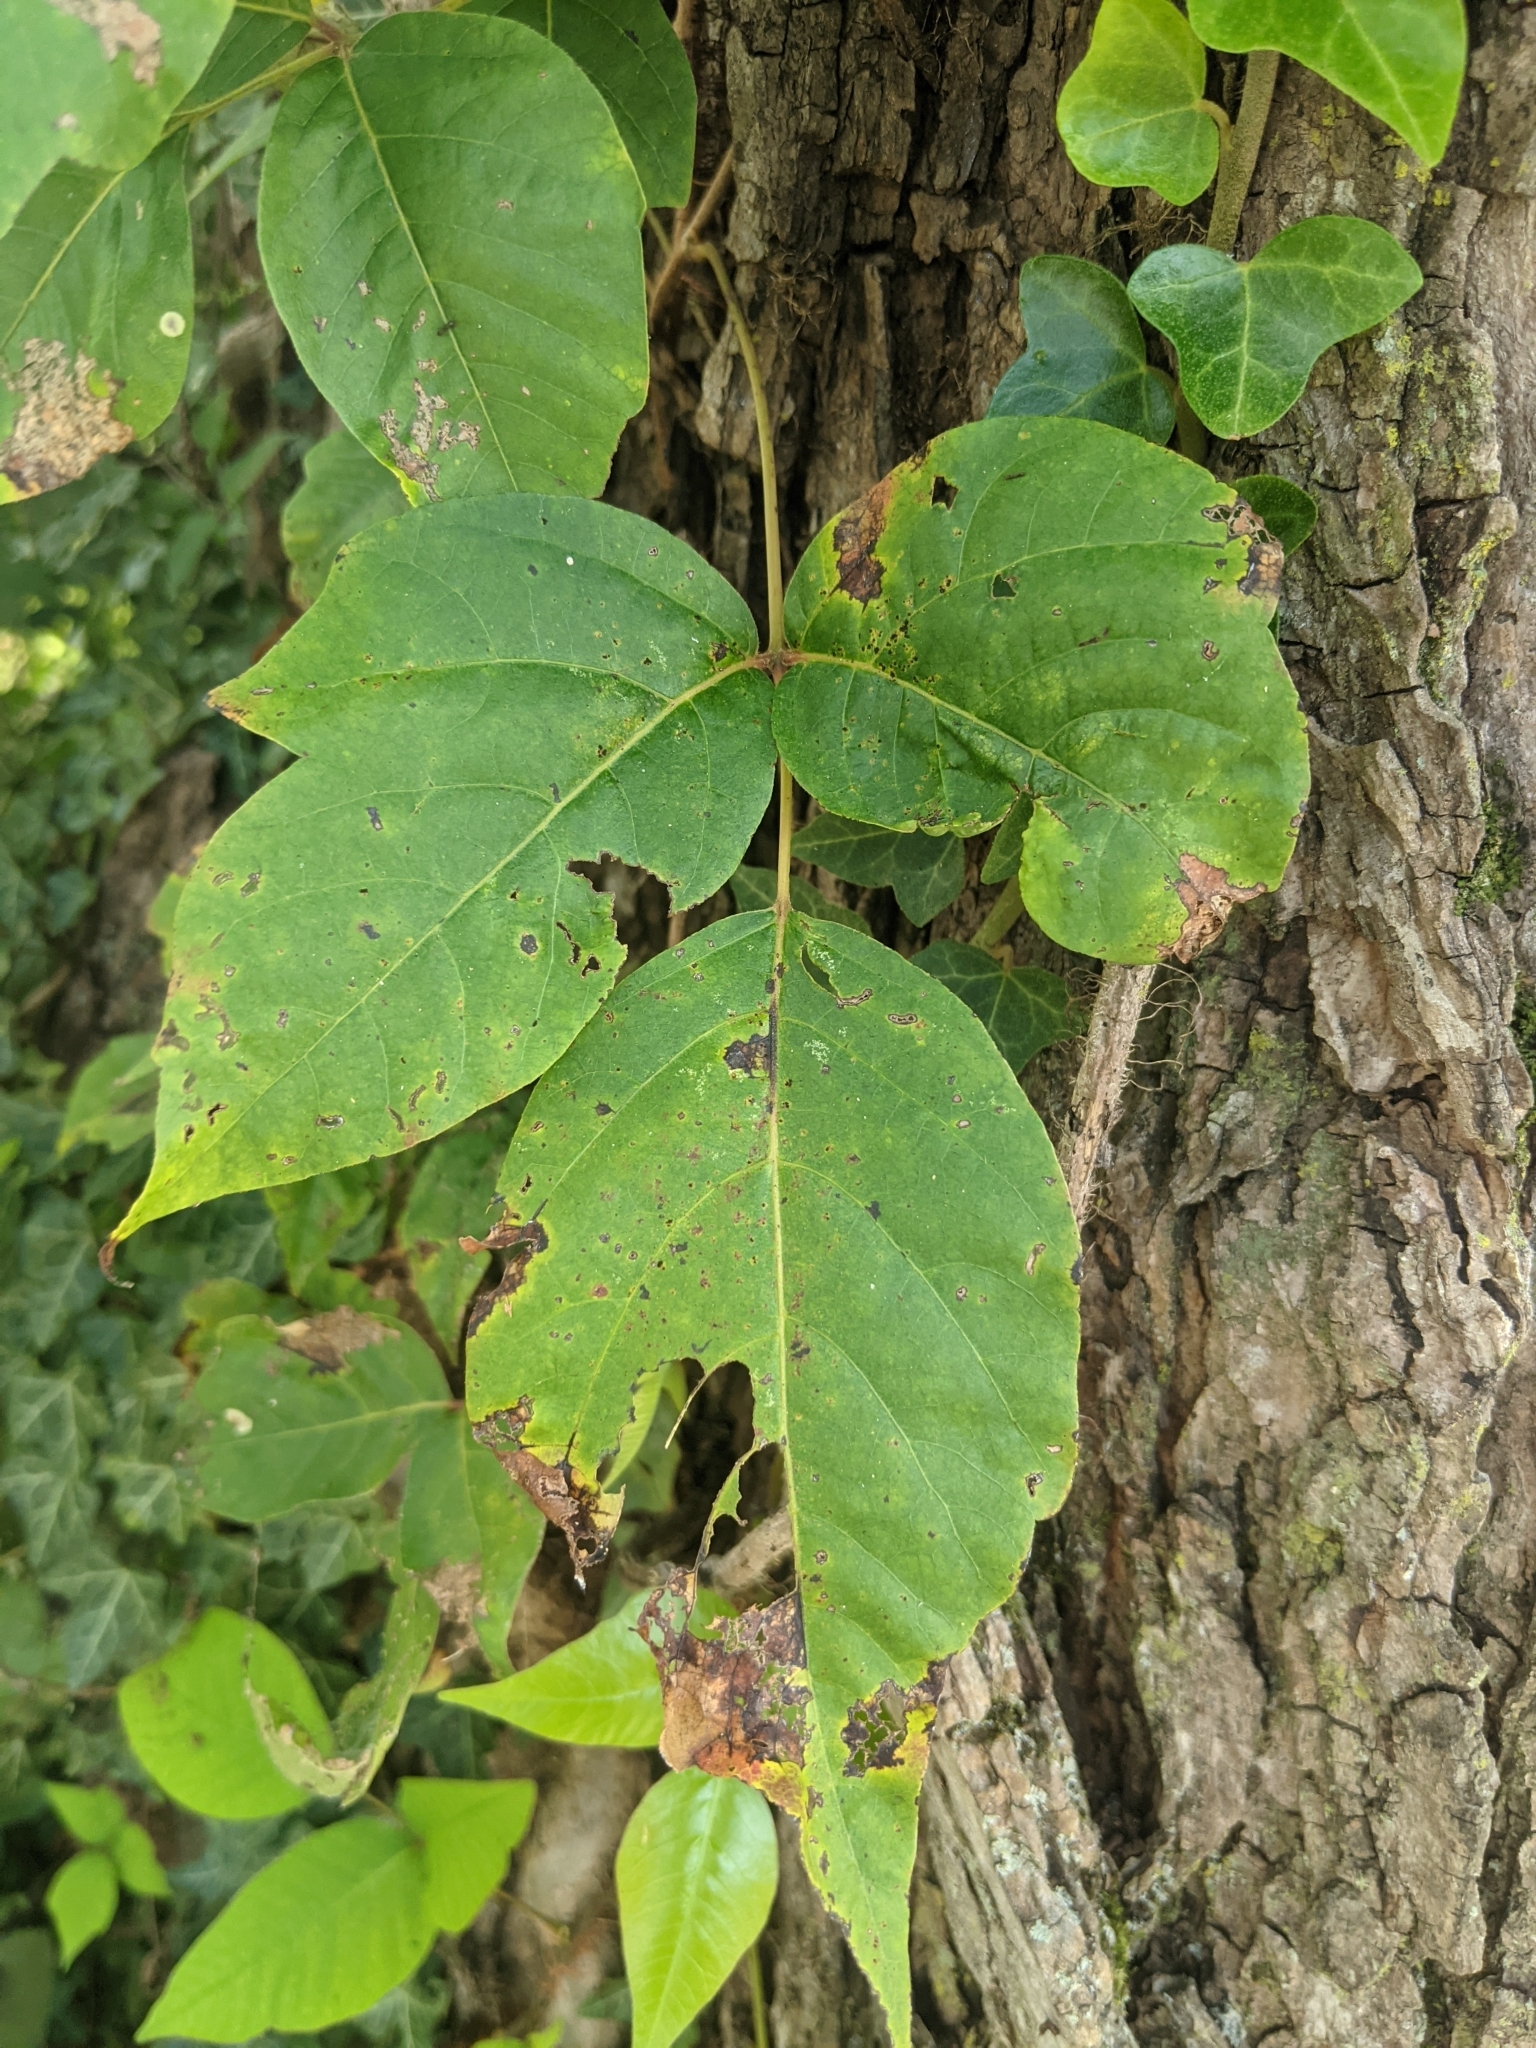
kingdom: Plantae
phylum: Tracheophyta
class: Magnoliopsida
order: Sapindales
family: Anacardiaceae
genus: Toxicodendron
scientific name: Toxicodendron radicans
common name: Poison ivy
